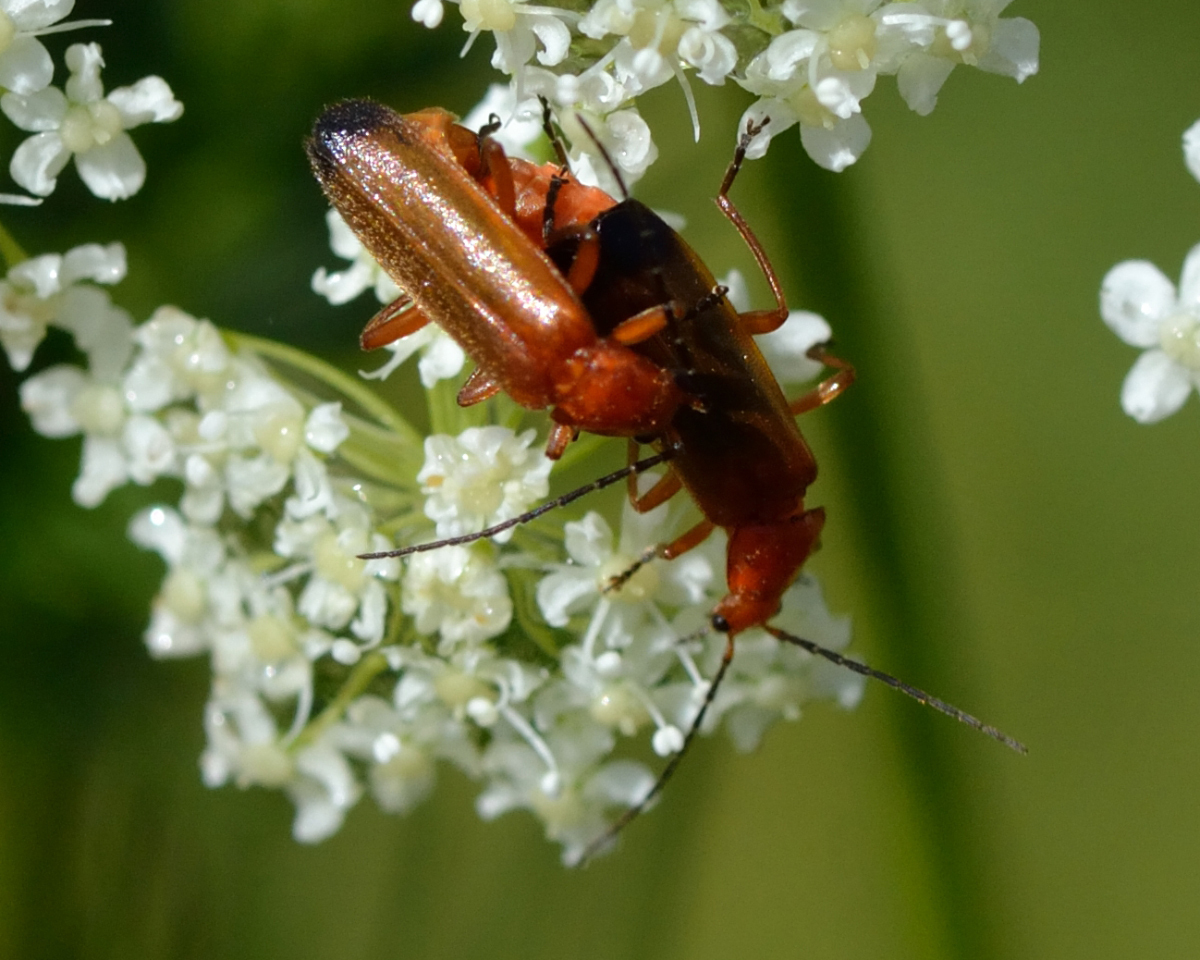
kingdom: Animalia
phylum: Arthropoda
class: Insecta
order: Coleoptera
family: Cantharidae
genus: Rhagonycha
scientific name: Rhagonycha fulva
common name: Common red soldier beetle
